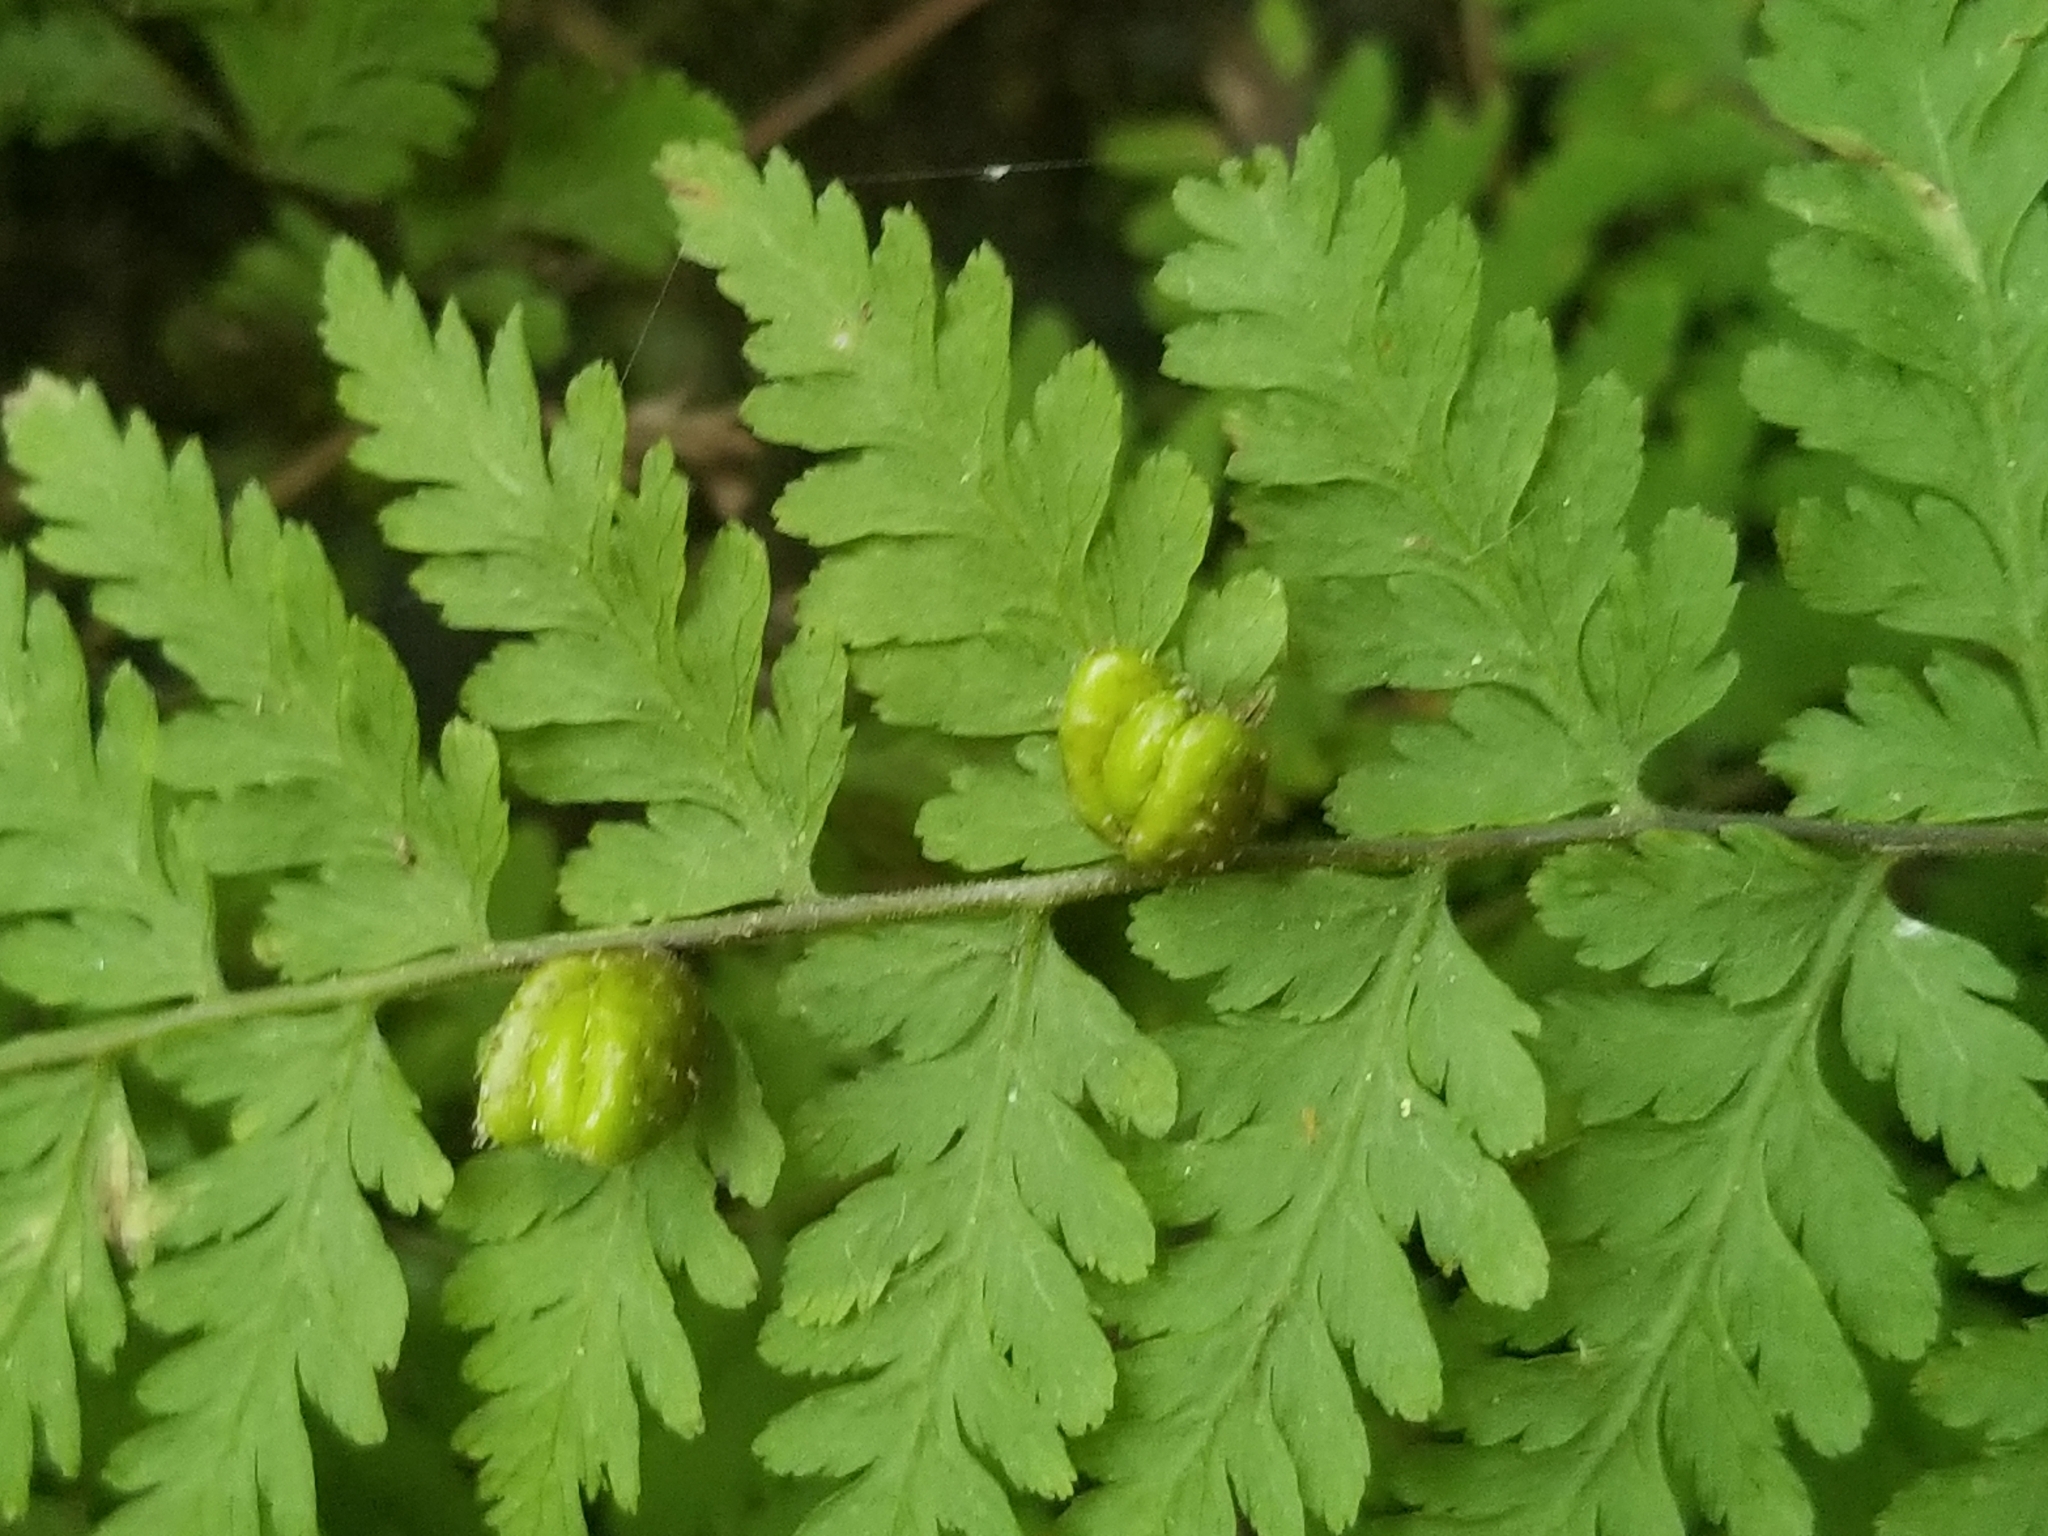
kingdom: Plantae
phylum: Tracheophyta
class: Polypodiopsida
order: Polypodiales
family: Cystopteridaceae
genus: Cystopteris
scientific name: Cystopteris bulbifera
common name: Bulblet bladder fern
